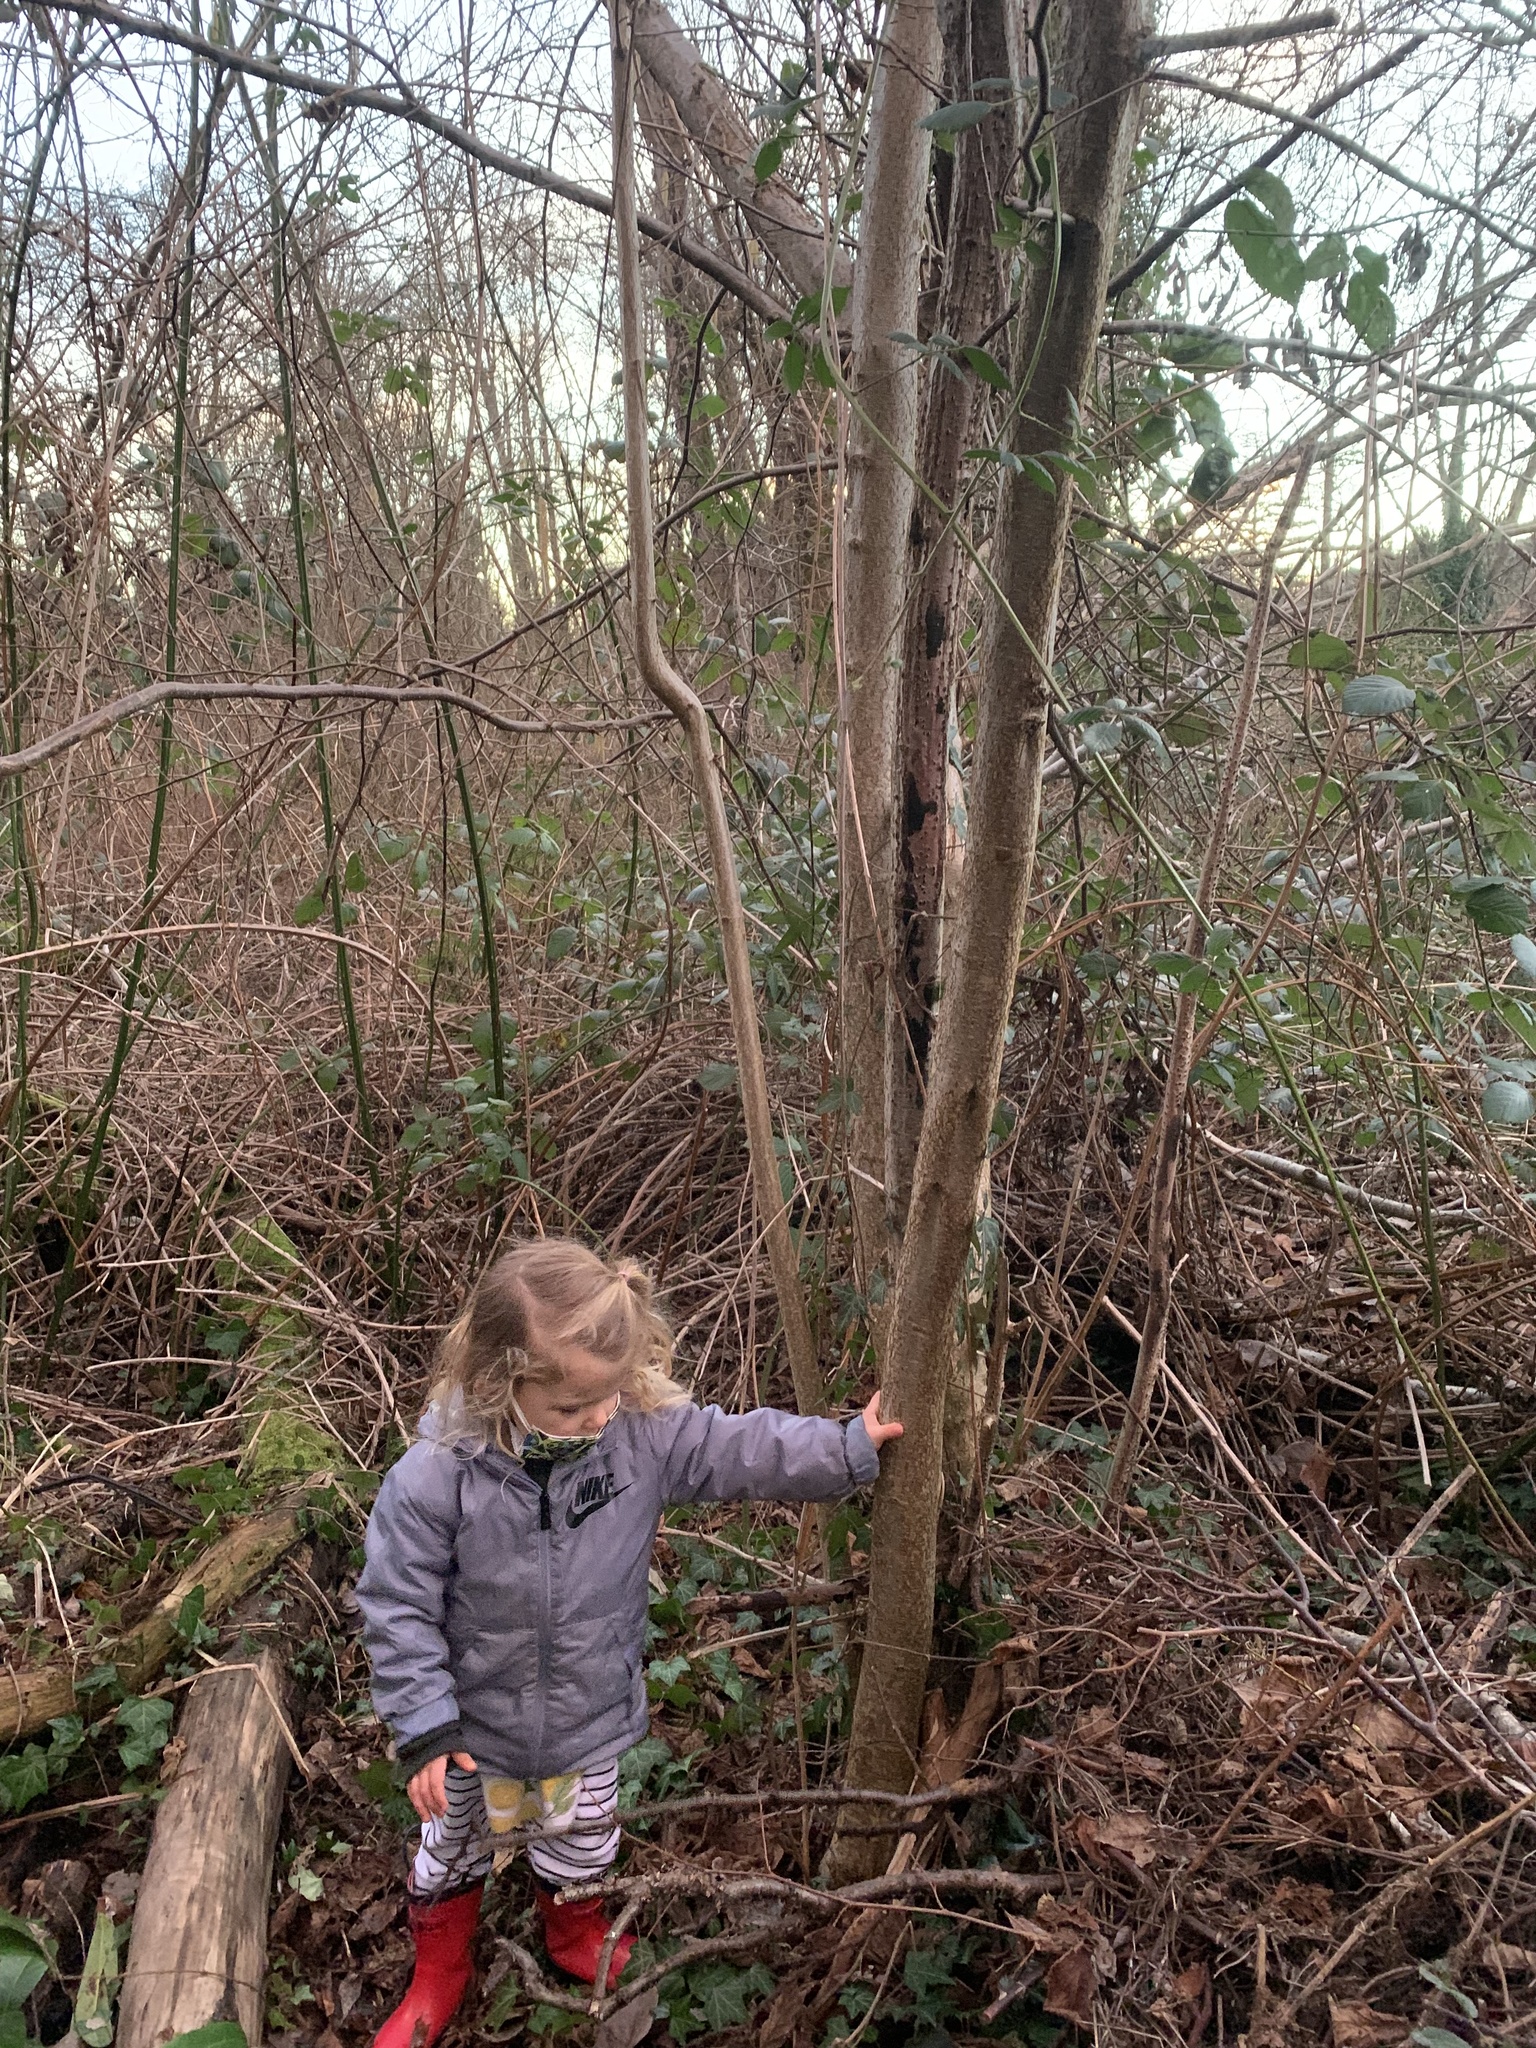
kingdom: Plantae
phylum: Tracheophyta
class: Magnoliopsida
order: Fagales
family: Betulaceae
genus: Corylus
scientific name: Corylus avellana
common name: European hazel
